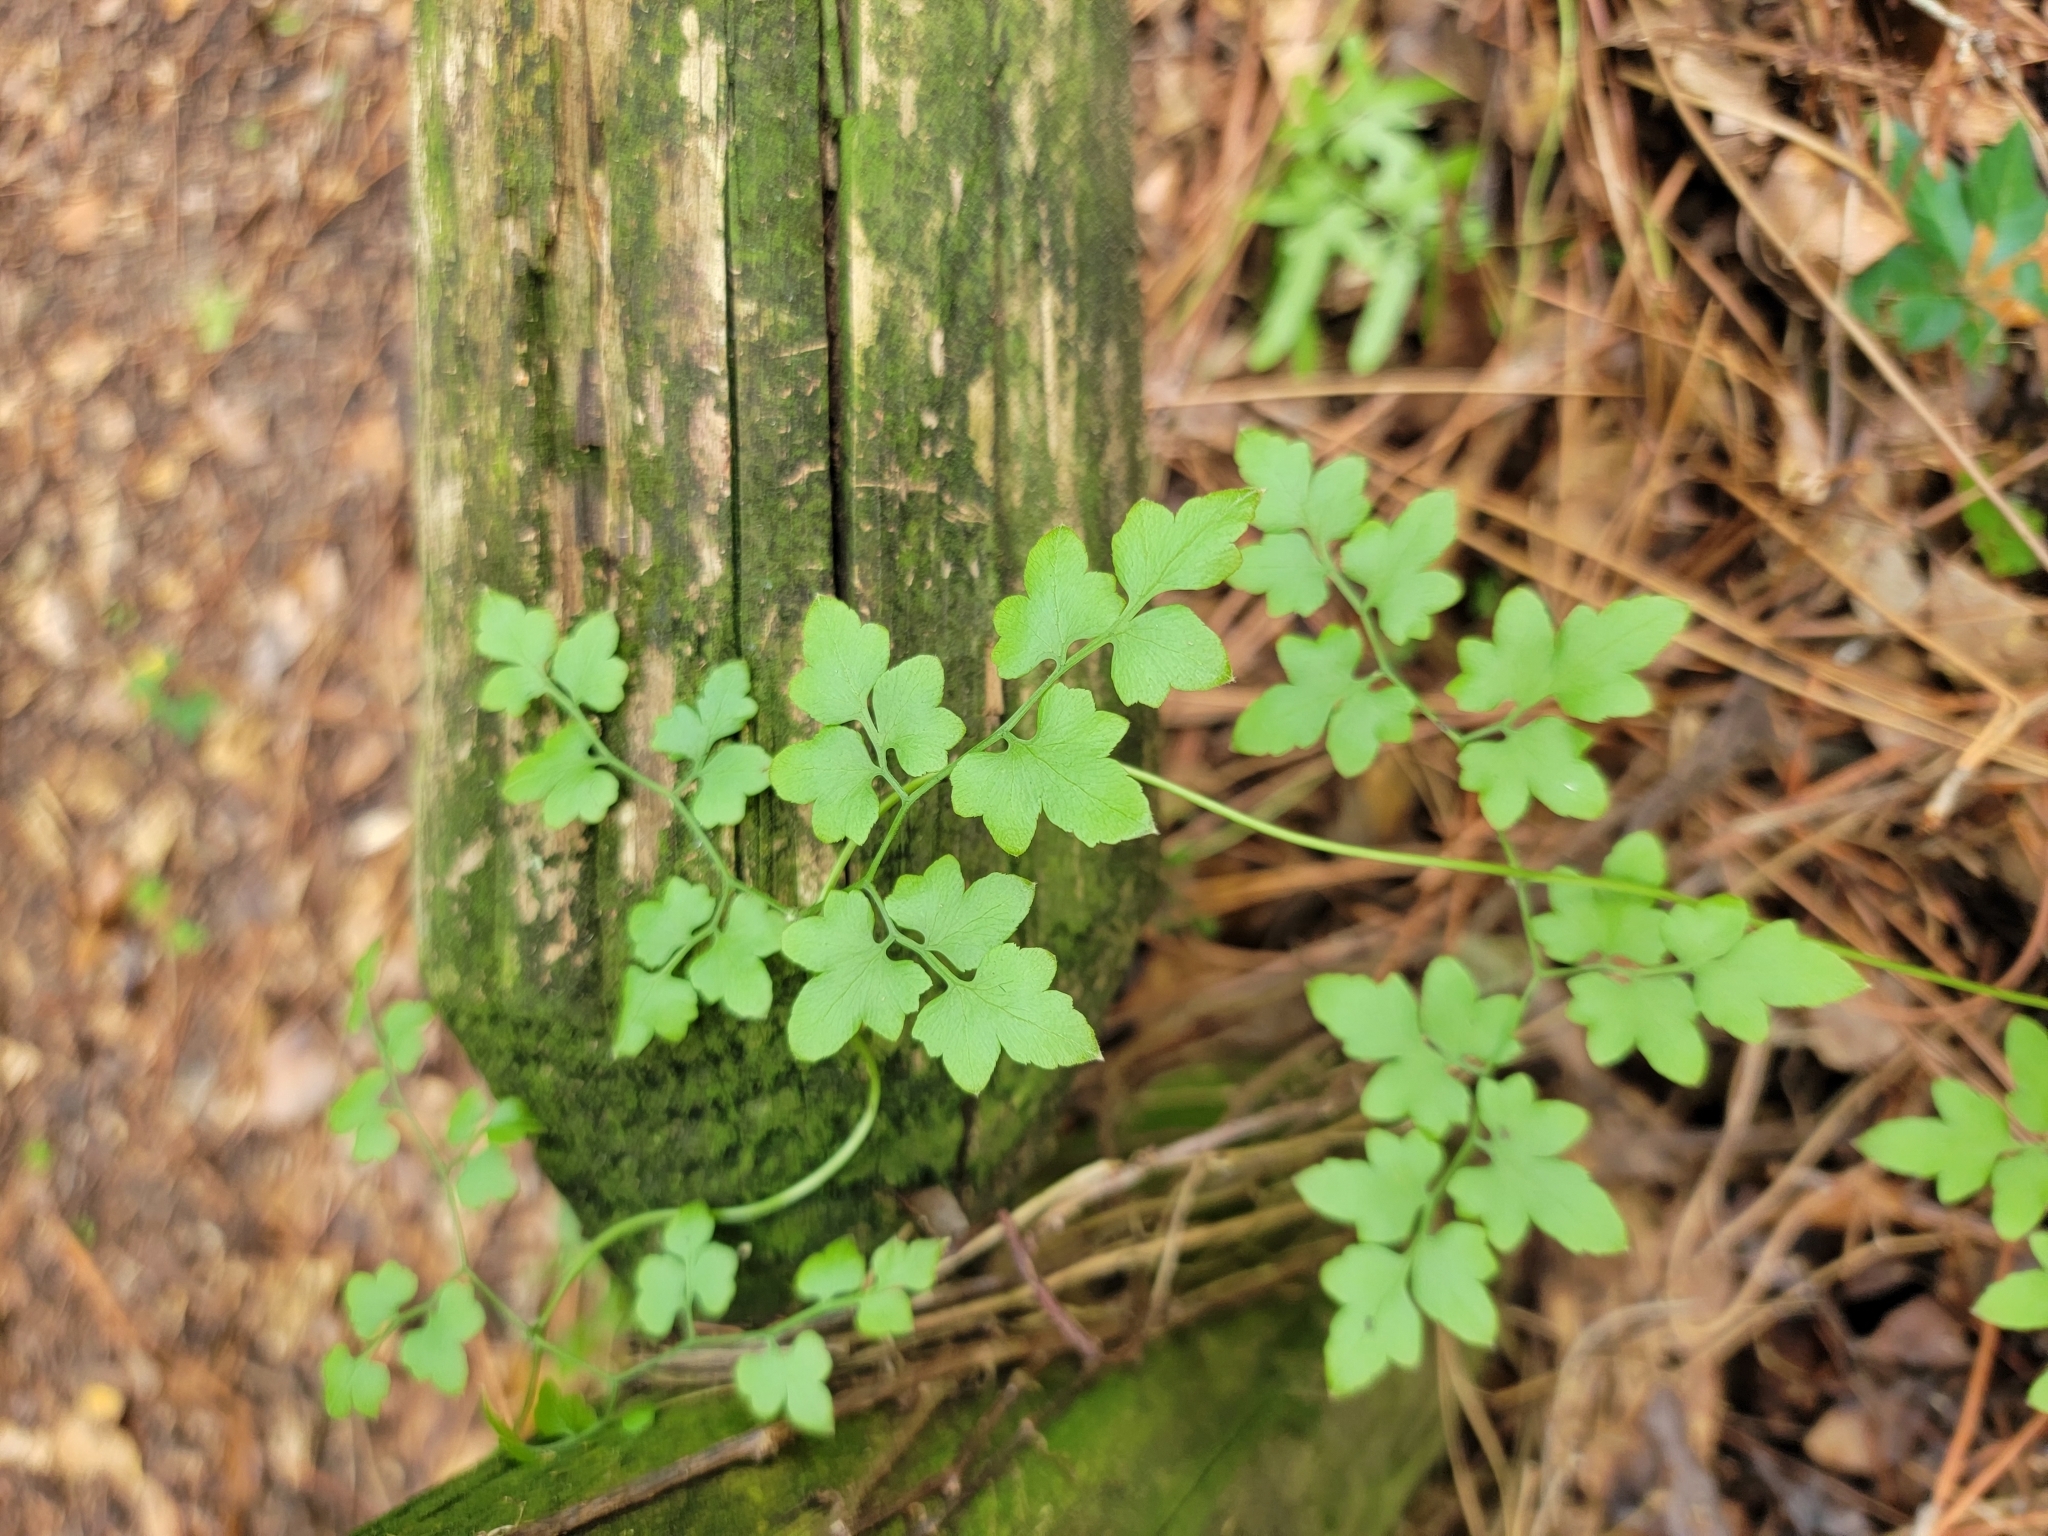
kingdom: Plantae
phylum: Tracheophyta
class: Polypodiopsida
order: Schizaeales
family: Lygodiaceae
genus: Lygodium
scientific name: Lygodium japonicum
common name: Japanese climbing fern
